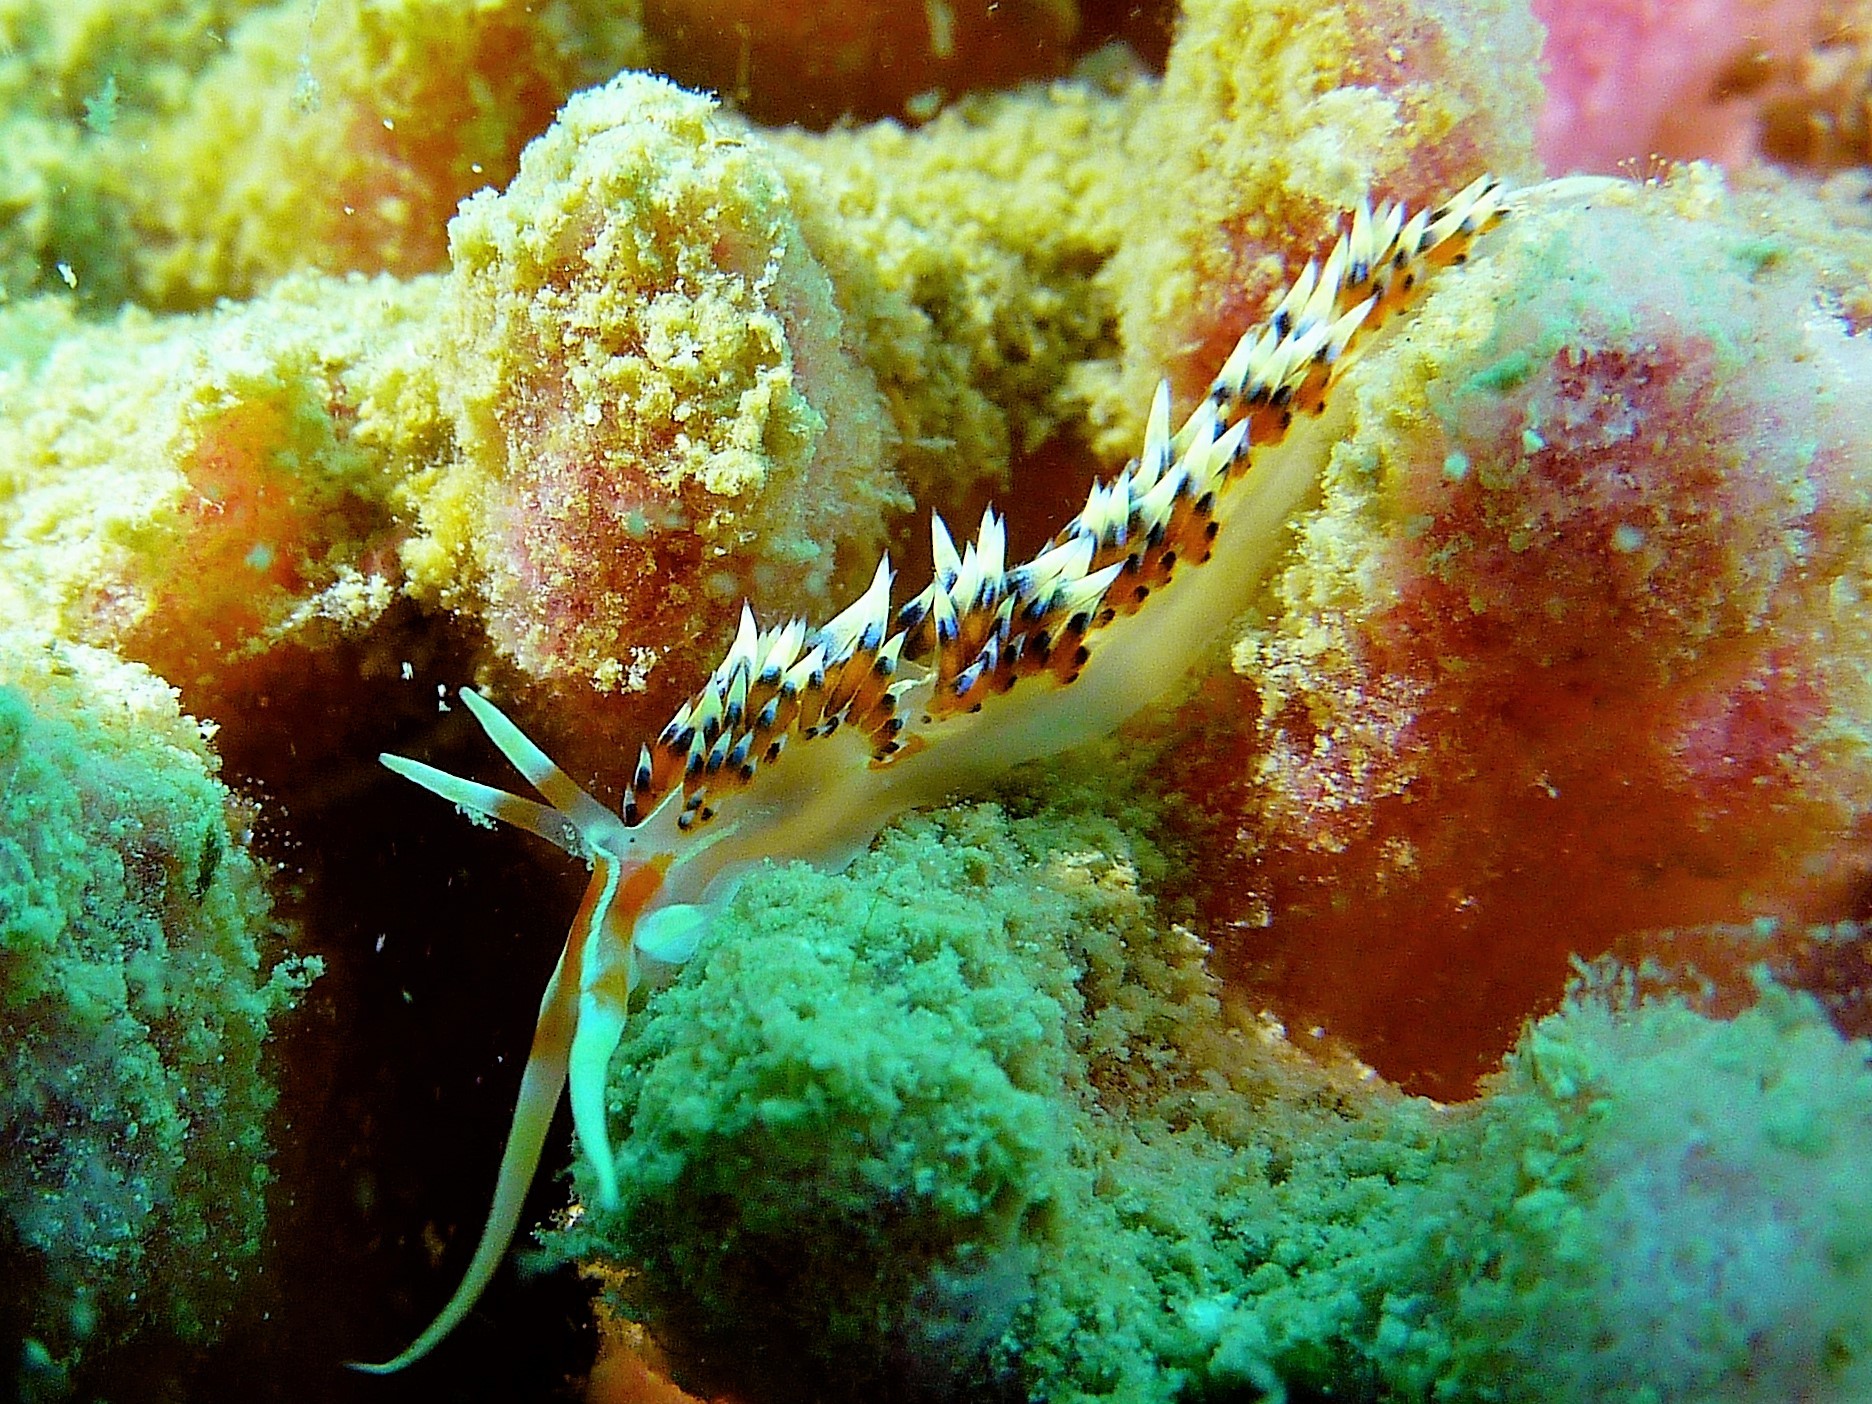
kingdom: Animalia
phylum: Mollusca
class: Gastropoda
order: Nudibranchia
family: Facelinidae
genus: Caloria
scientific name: Caloria indica
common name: Sea slug
